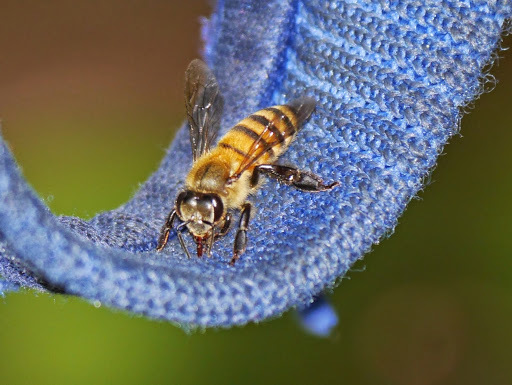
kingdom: Animalia
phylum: Arthropoda
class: Insecta
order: Hymenoptera
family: Apidae
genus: Apis
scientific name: Apis mellifera
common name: Honey bee
